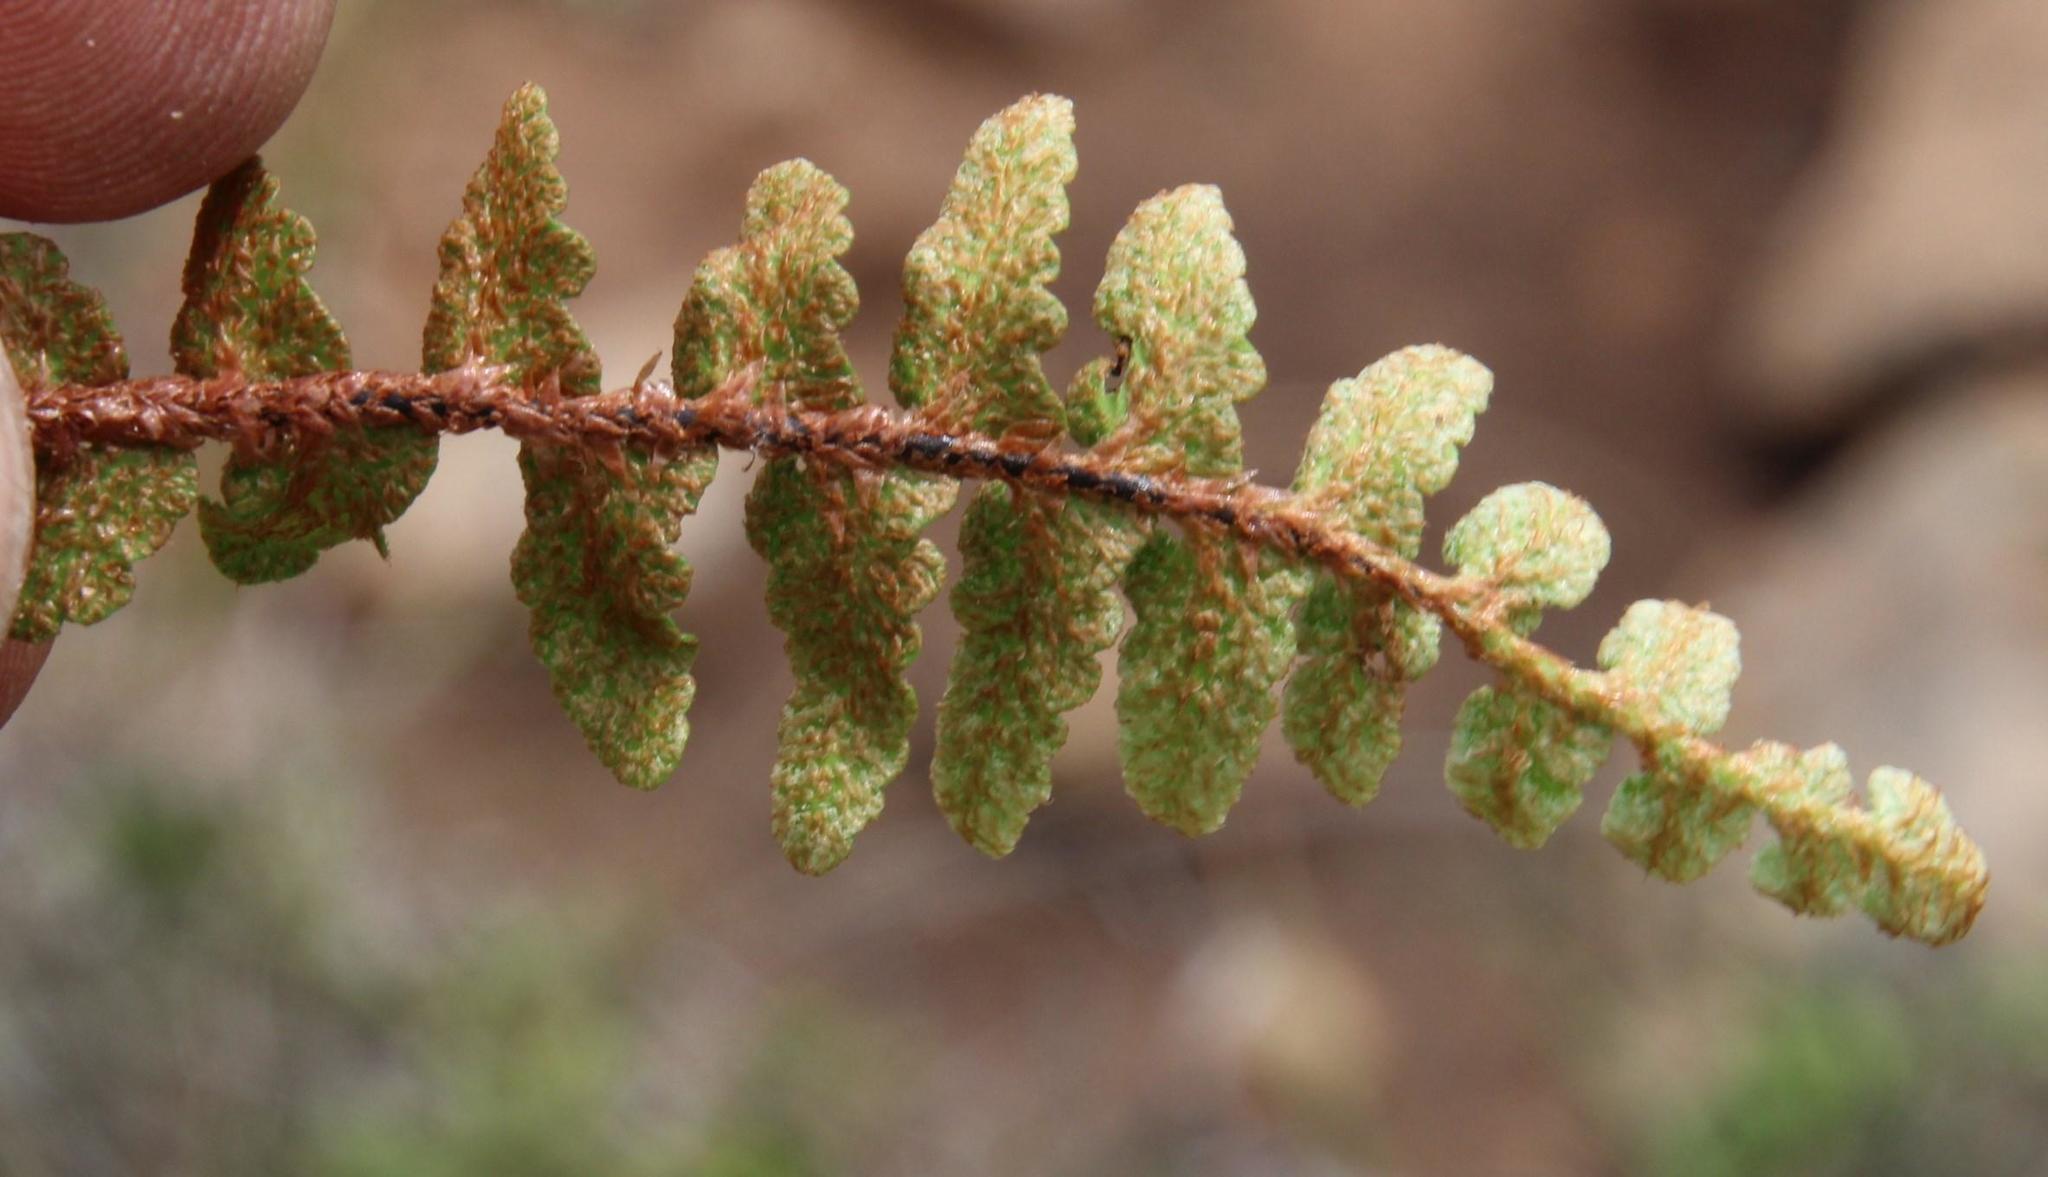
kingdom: Plantae
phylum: Tracheophyta
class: Polypodiopsida
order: Polypodiales
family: Aspleniaceae
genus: Asplenium
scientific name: Asplenium cordatum
